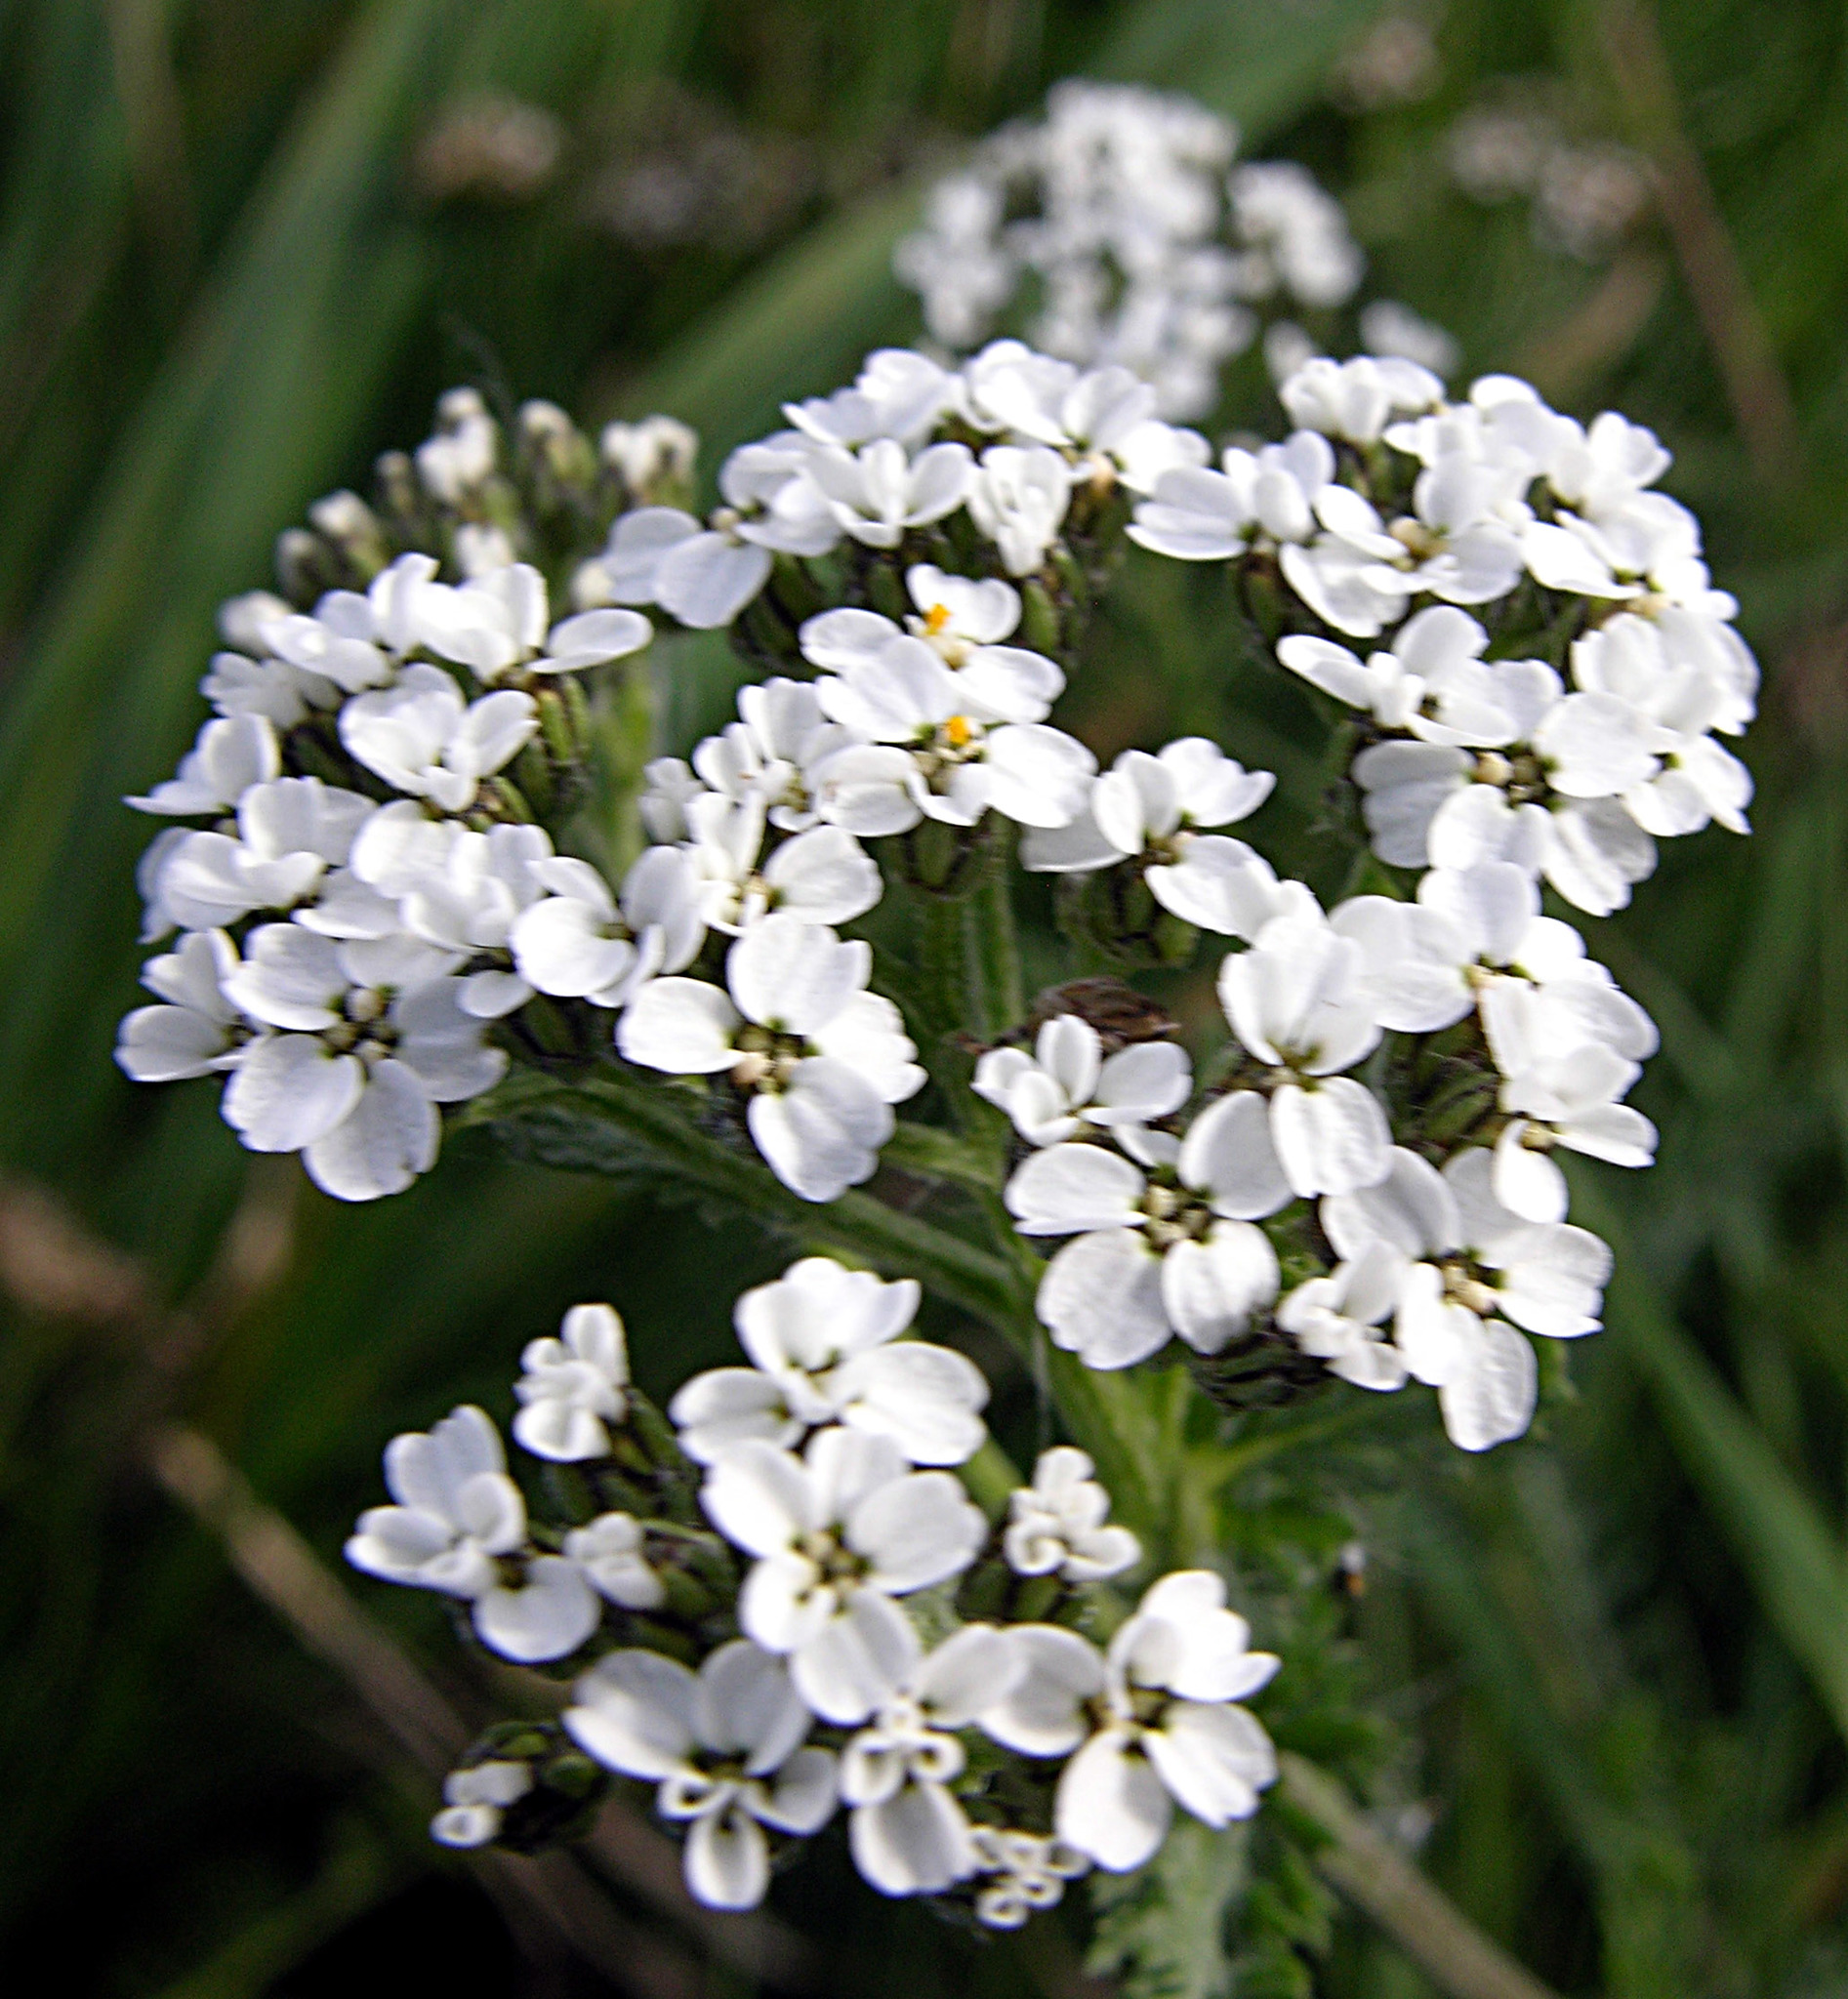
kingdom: Plantae
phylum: Tracheophyta
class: Magnoliopsida
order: Asterales
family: Asteraceae
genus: Achillea
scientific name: Achillea millefolium
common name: Yarrow
